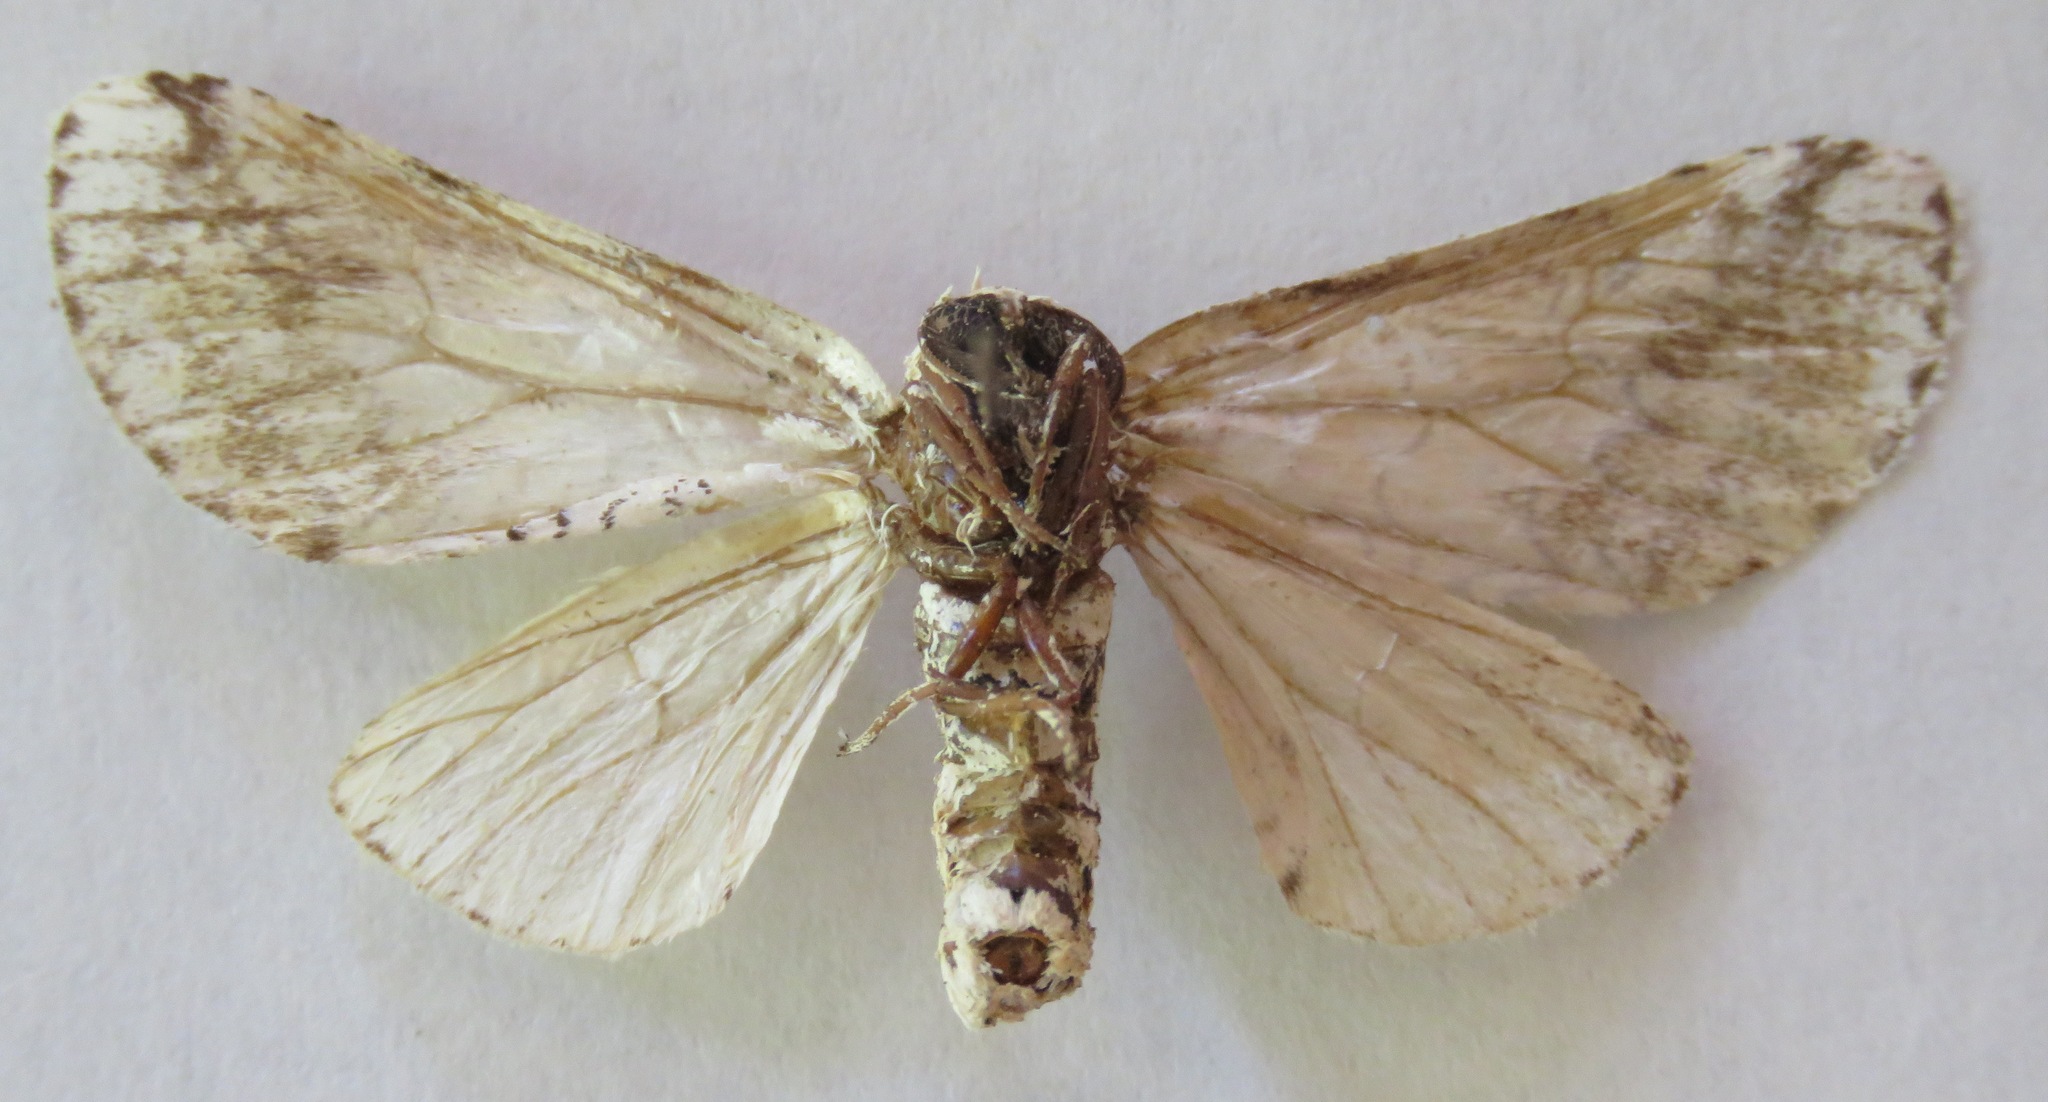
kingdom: Animalia
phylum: Arthropoda
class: Insecta
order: Lepidoptera
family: Notodontidae
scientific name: Notodontidae
